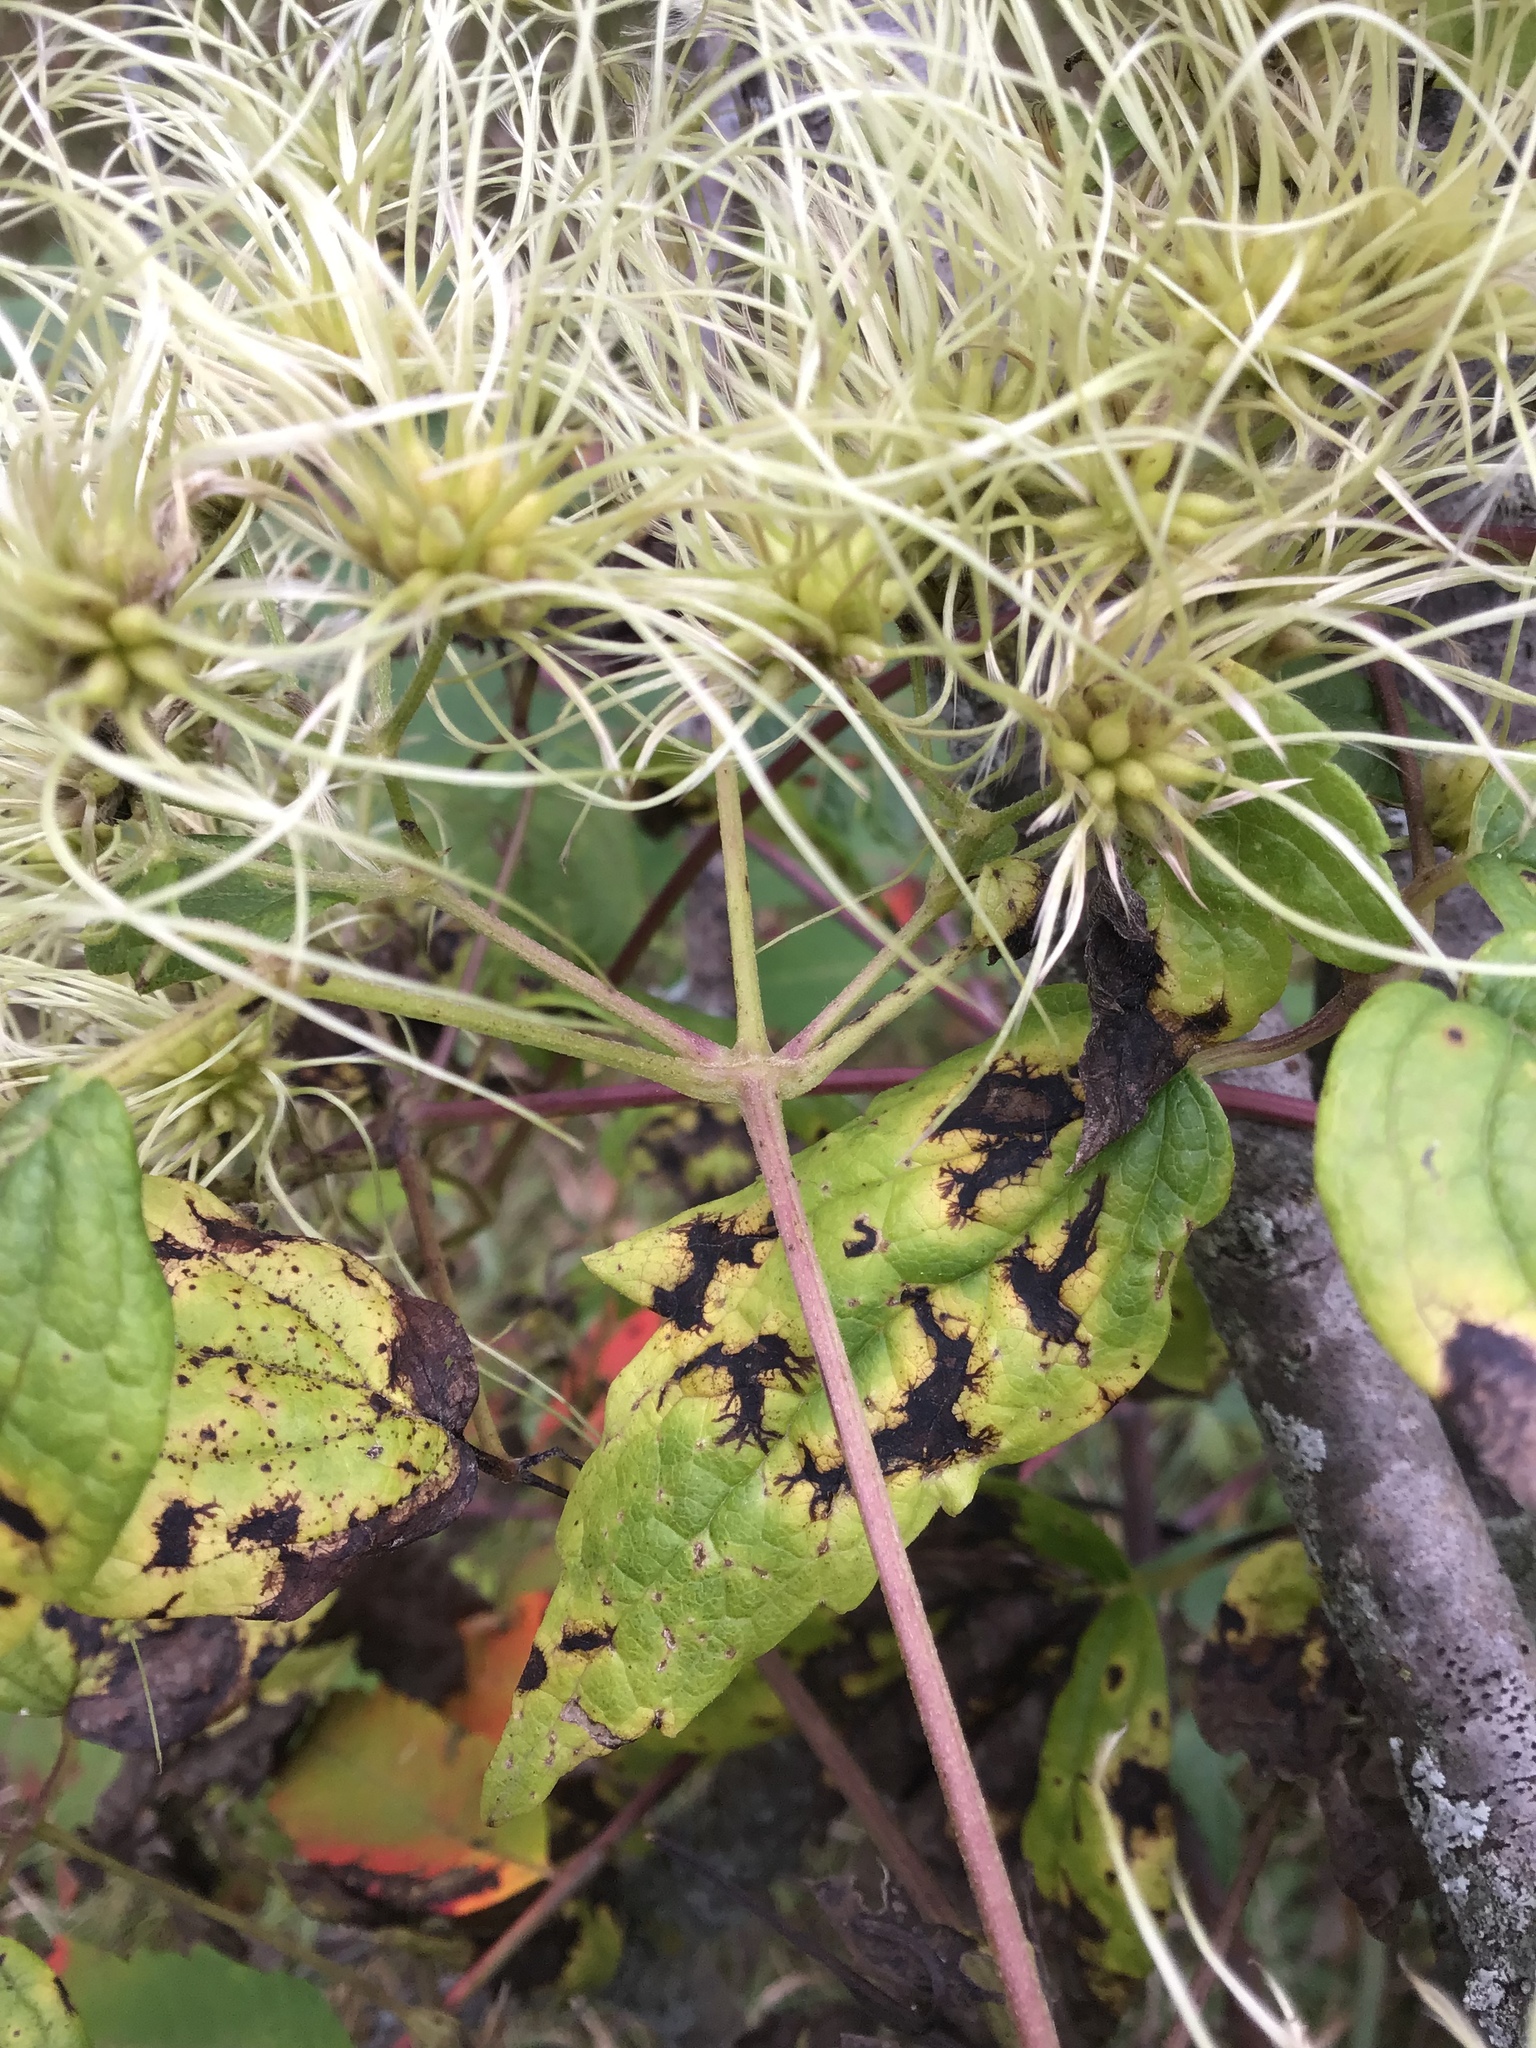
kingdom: Plantae
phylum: Tracheophyta
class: Magnoliopsida
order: Ranunculales
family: Ranunculaceae
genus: Clematis
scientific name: Clematis virginiana
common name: Virgin's-bower
